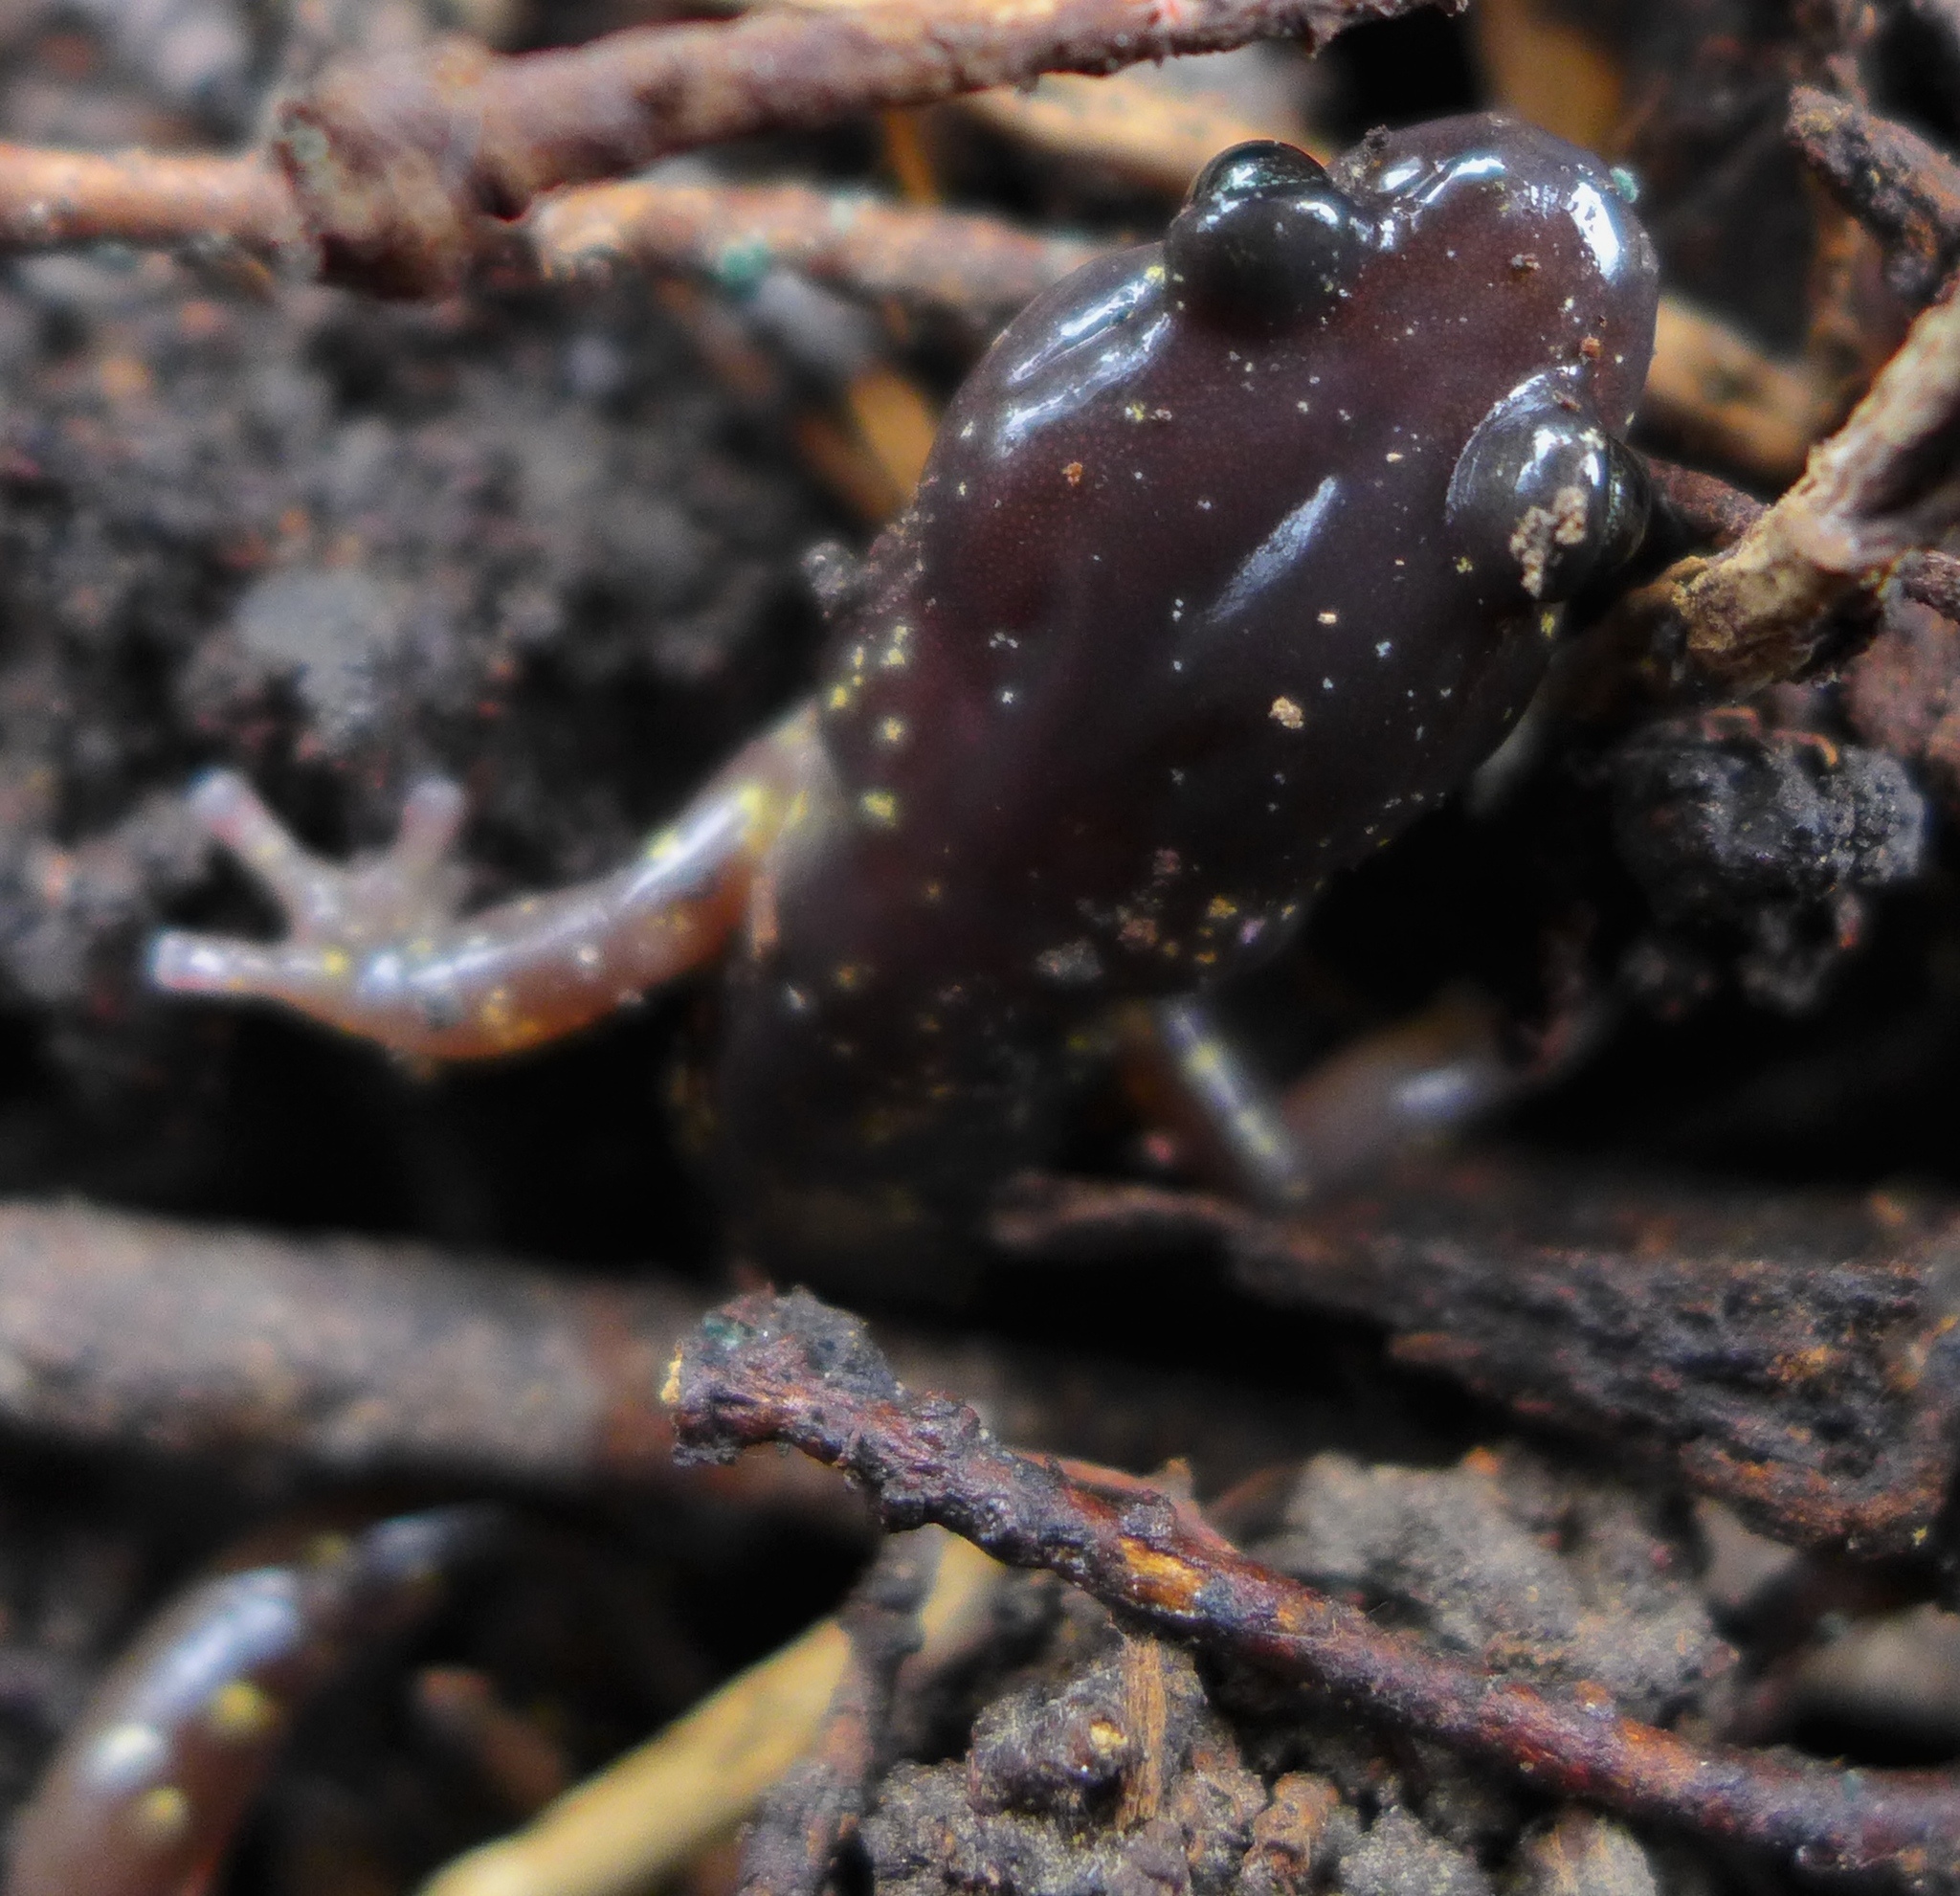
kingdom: Animalia
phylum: Chordata
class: Amphibia
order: Caudata
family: Plethodontidae
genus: Aneides
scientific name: Aneides lugubris
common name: Arboreal salamander
